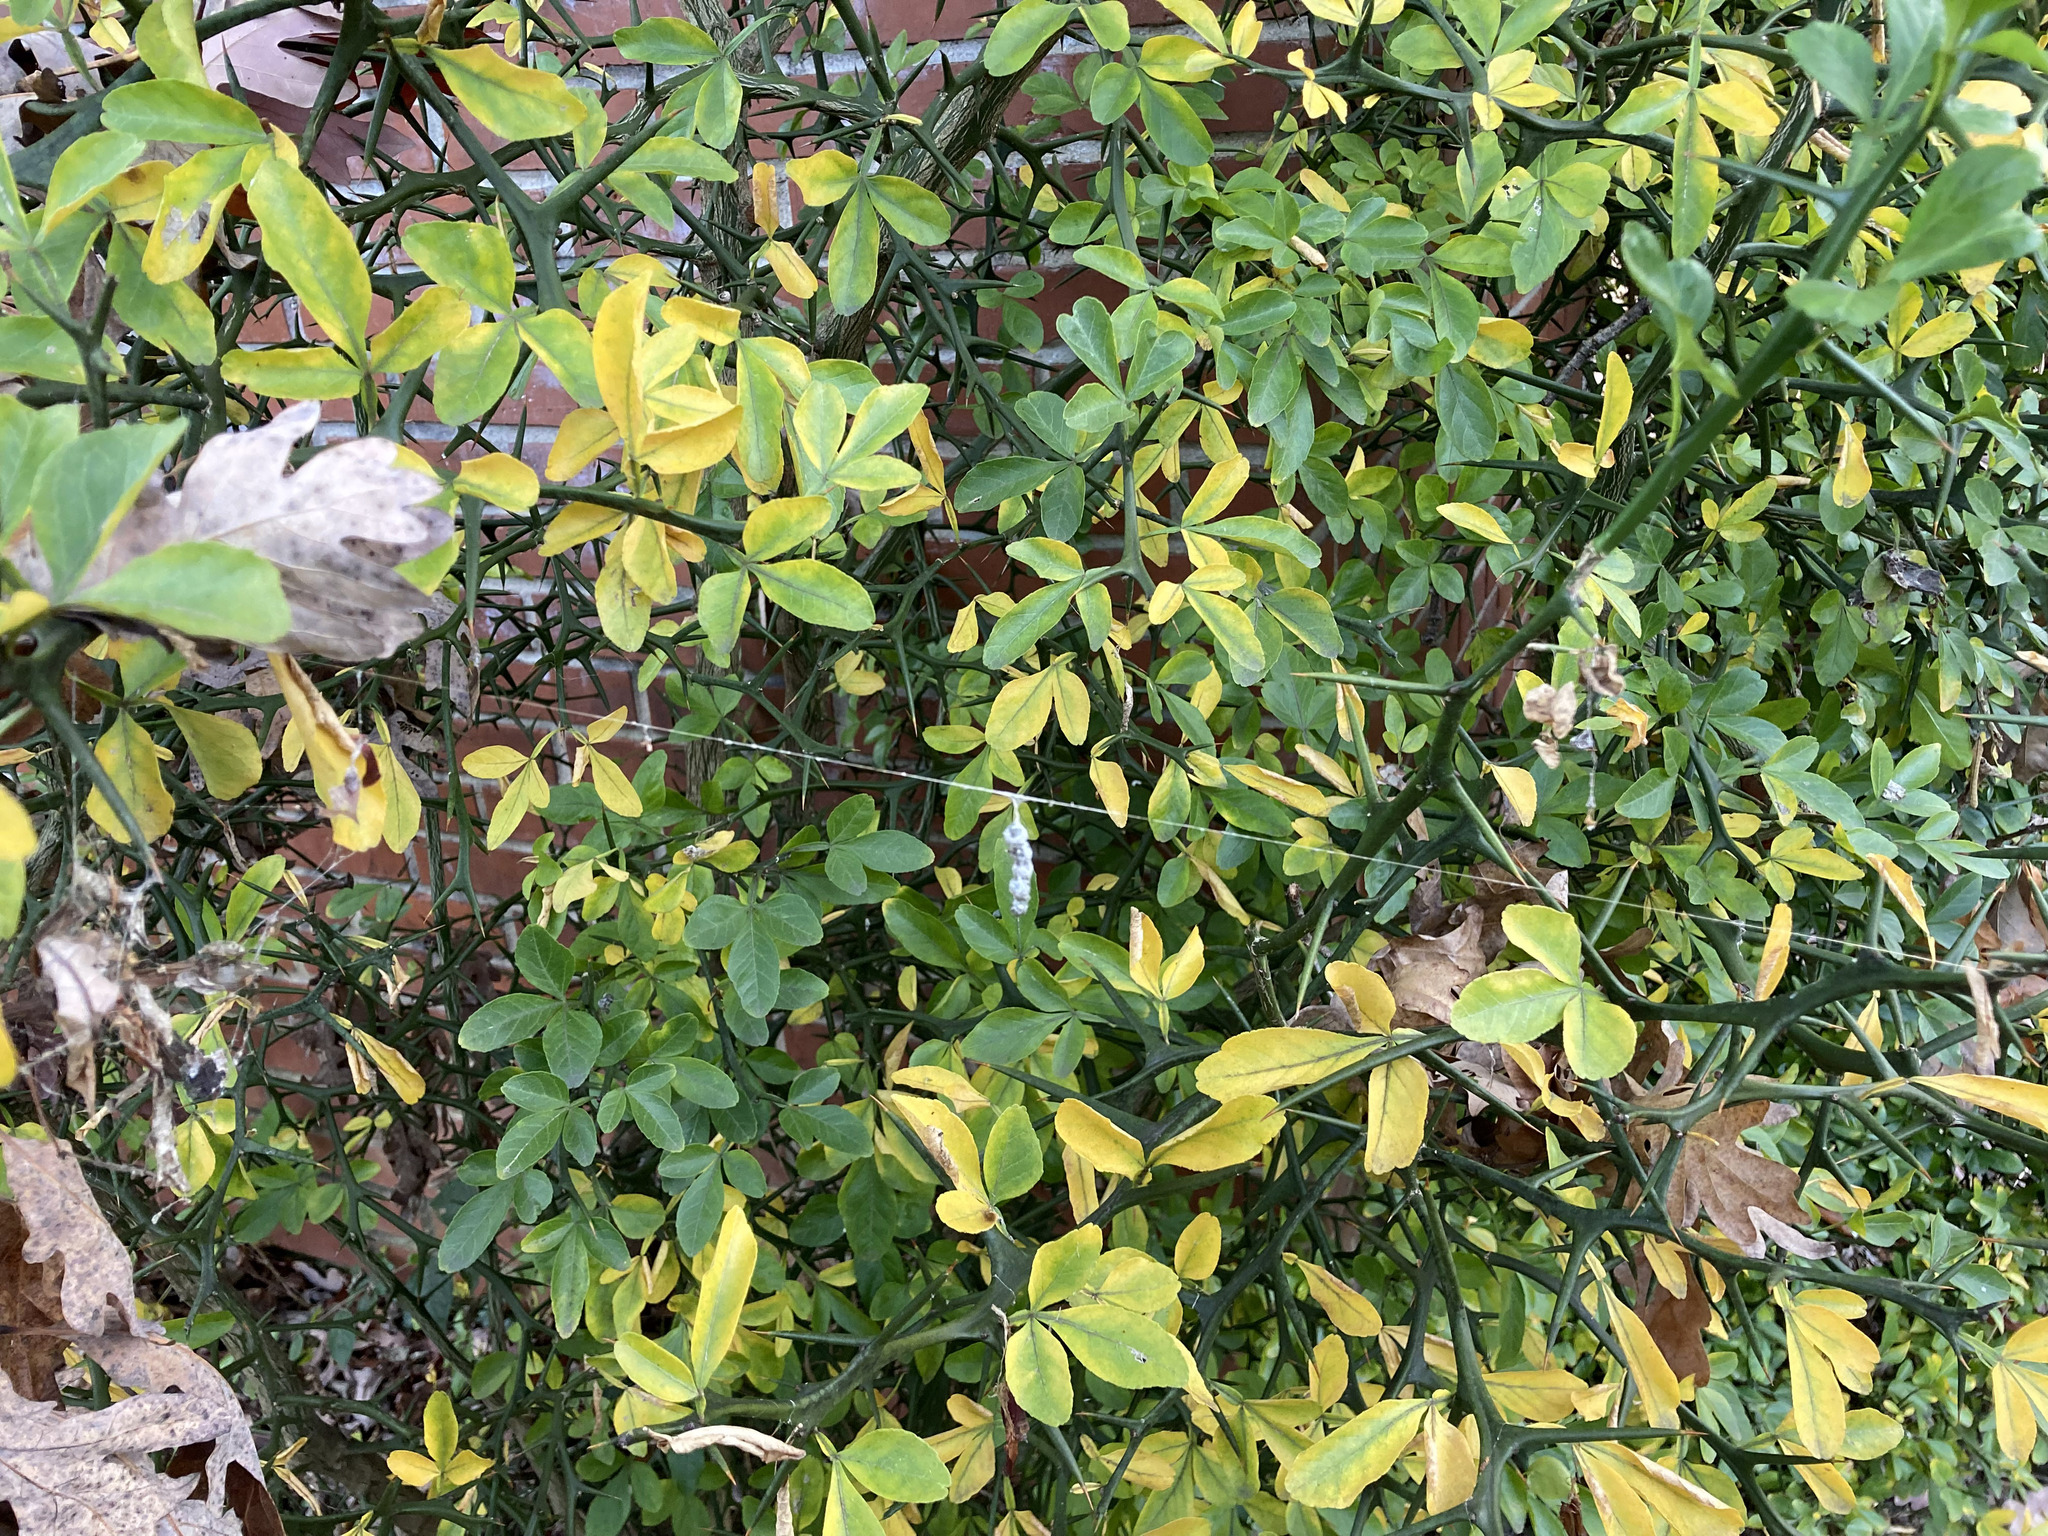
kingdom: Animalia
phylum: Arthropoda
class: Arachnida
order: Araneae
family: Araneidae
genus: Mecynogea
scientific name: Mecynogea lemniscata
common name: Orb weavers
